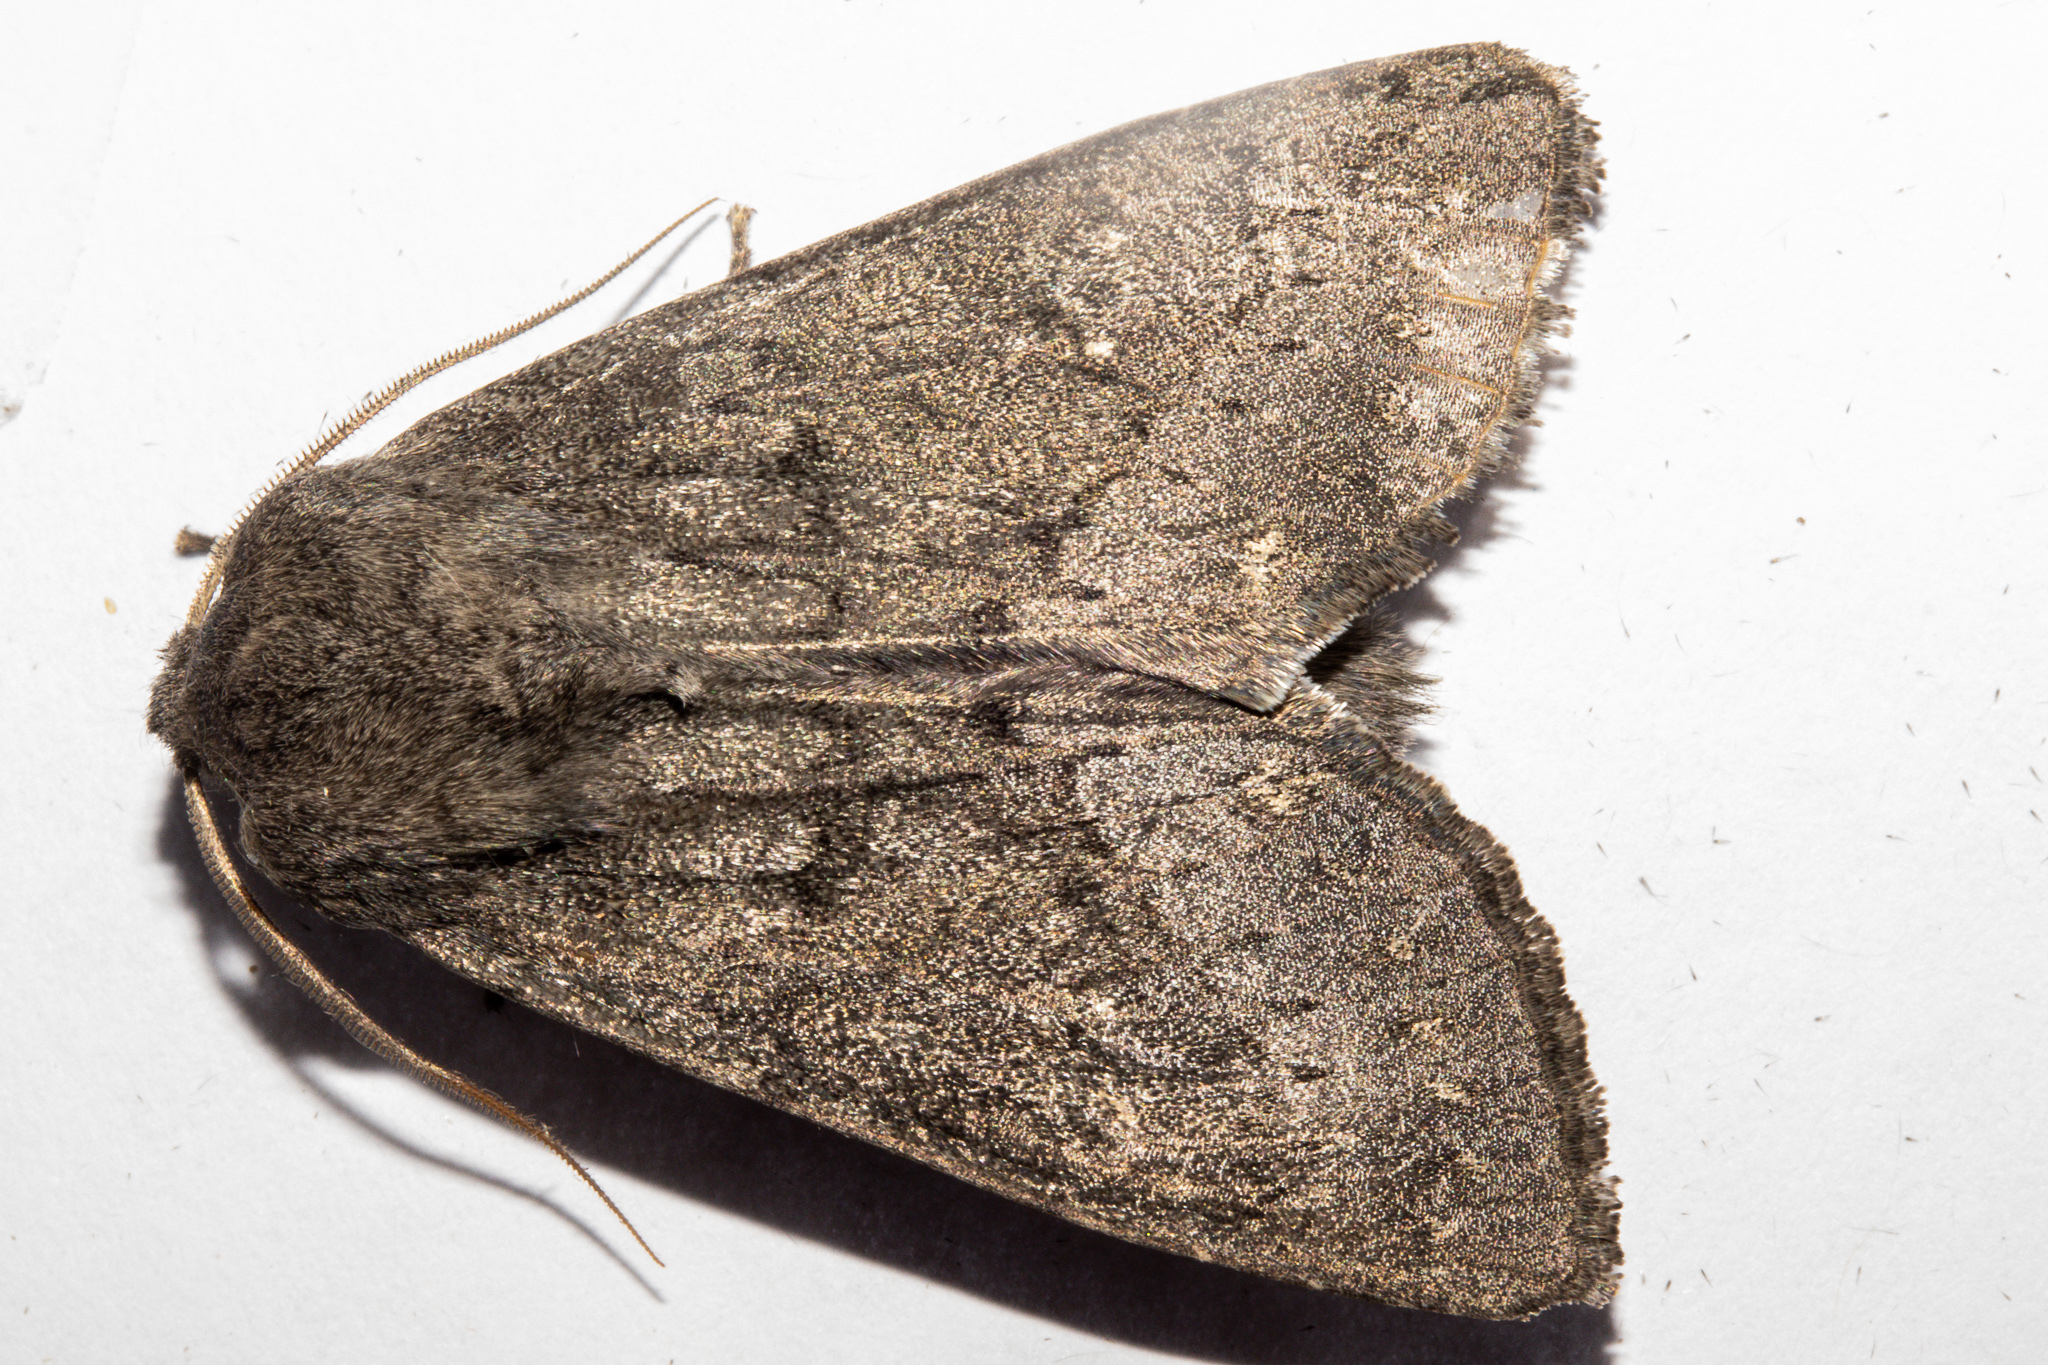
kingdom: Animalia
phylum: Arthropoda
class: Insecta
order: Lepidoptera
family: Noctuidae
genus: Ichneutica
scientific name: Ichneutica nullifera
